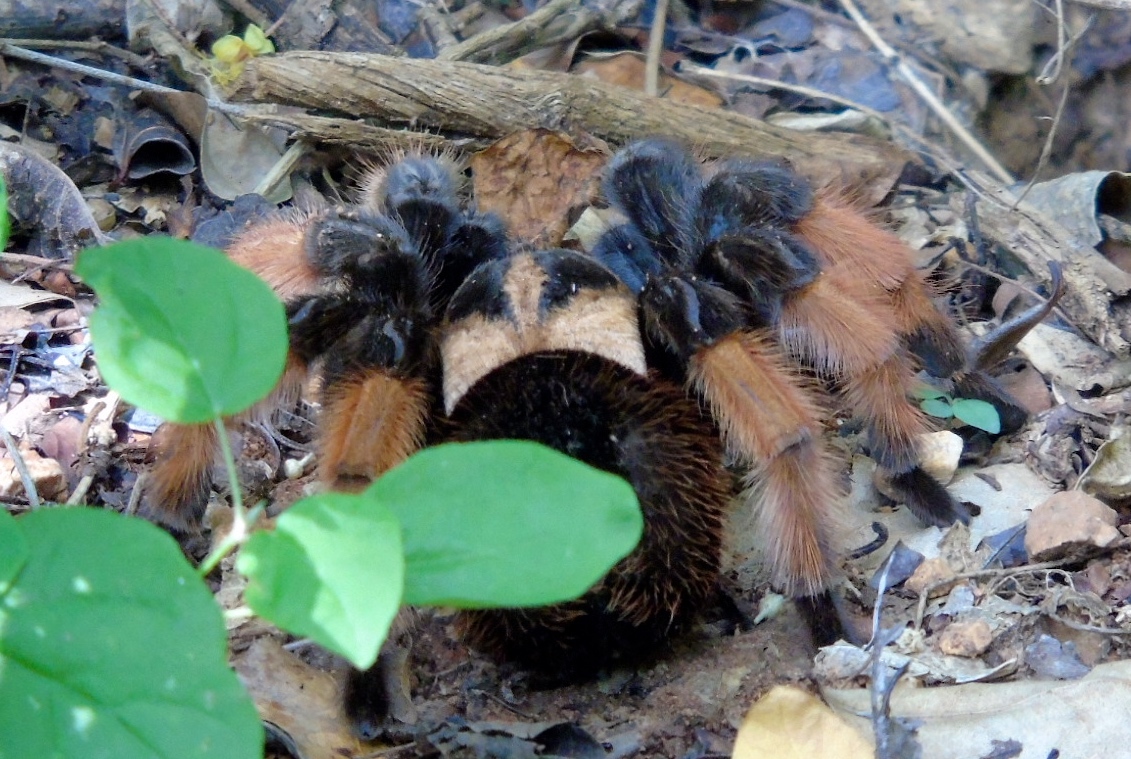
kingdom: Animalia
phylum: Arthropoda
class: Arachnida
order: Araneae
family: Theraphosidae
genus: Brachypelma
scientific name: Brachypelma emilia
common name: Mexican redleg
